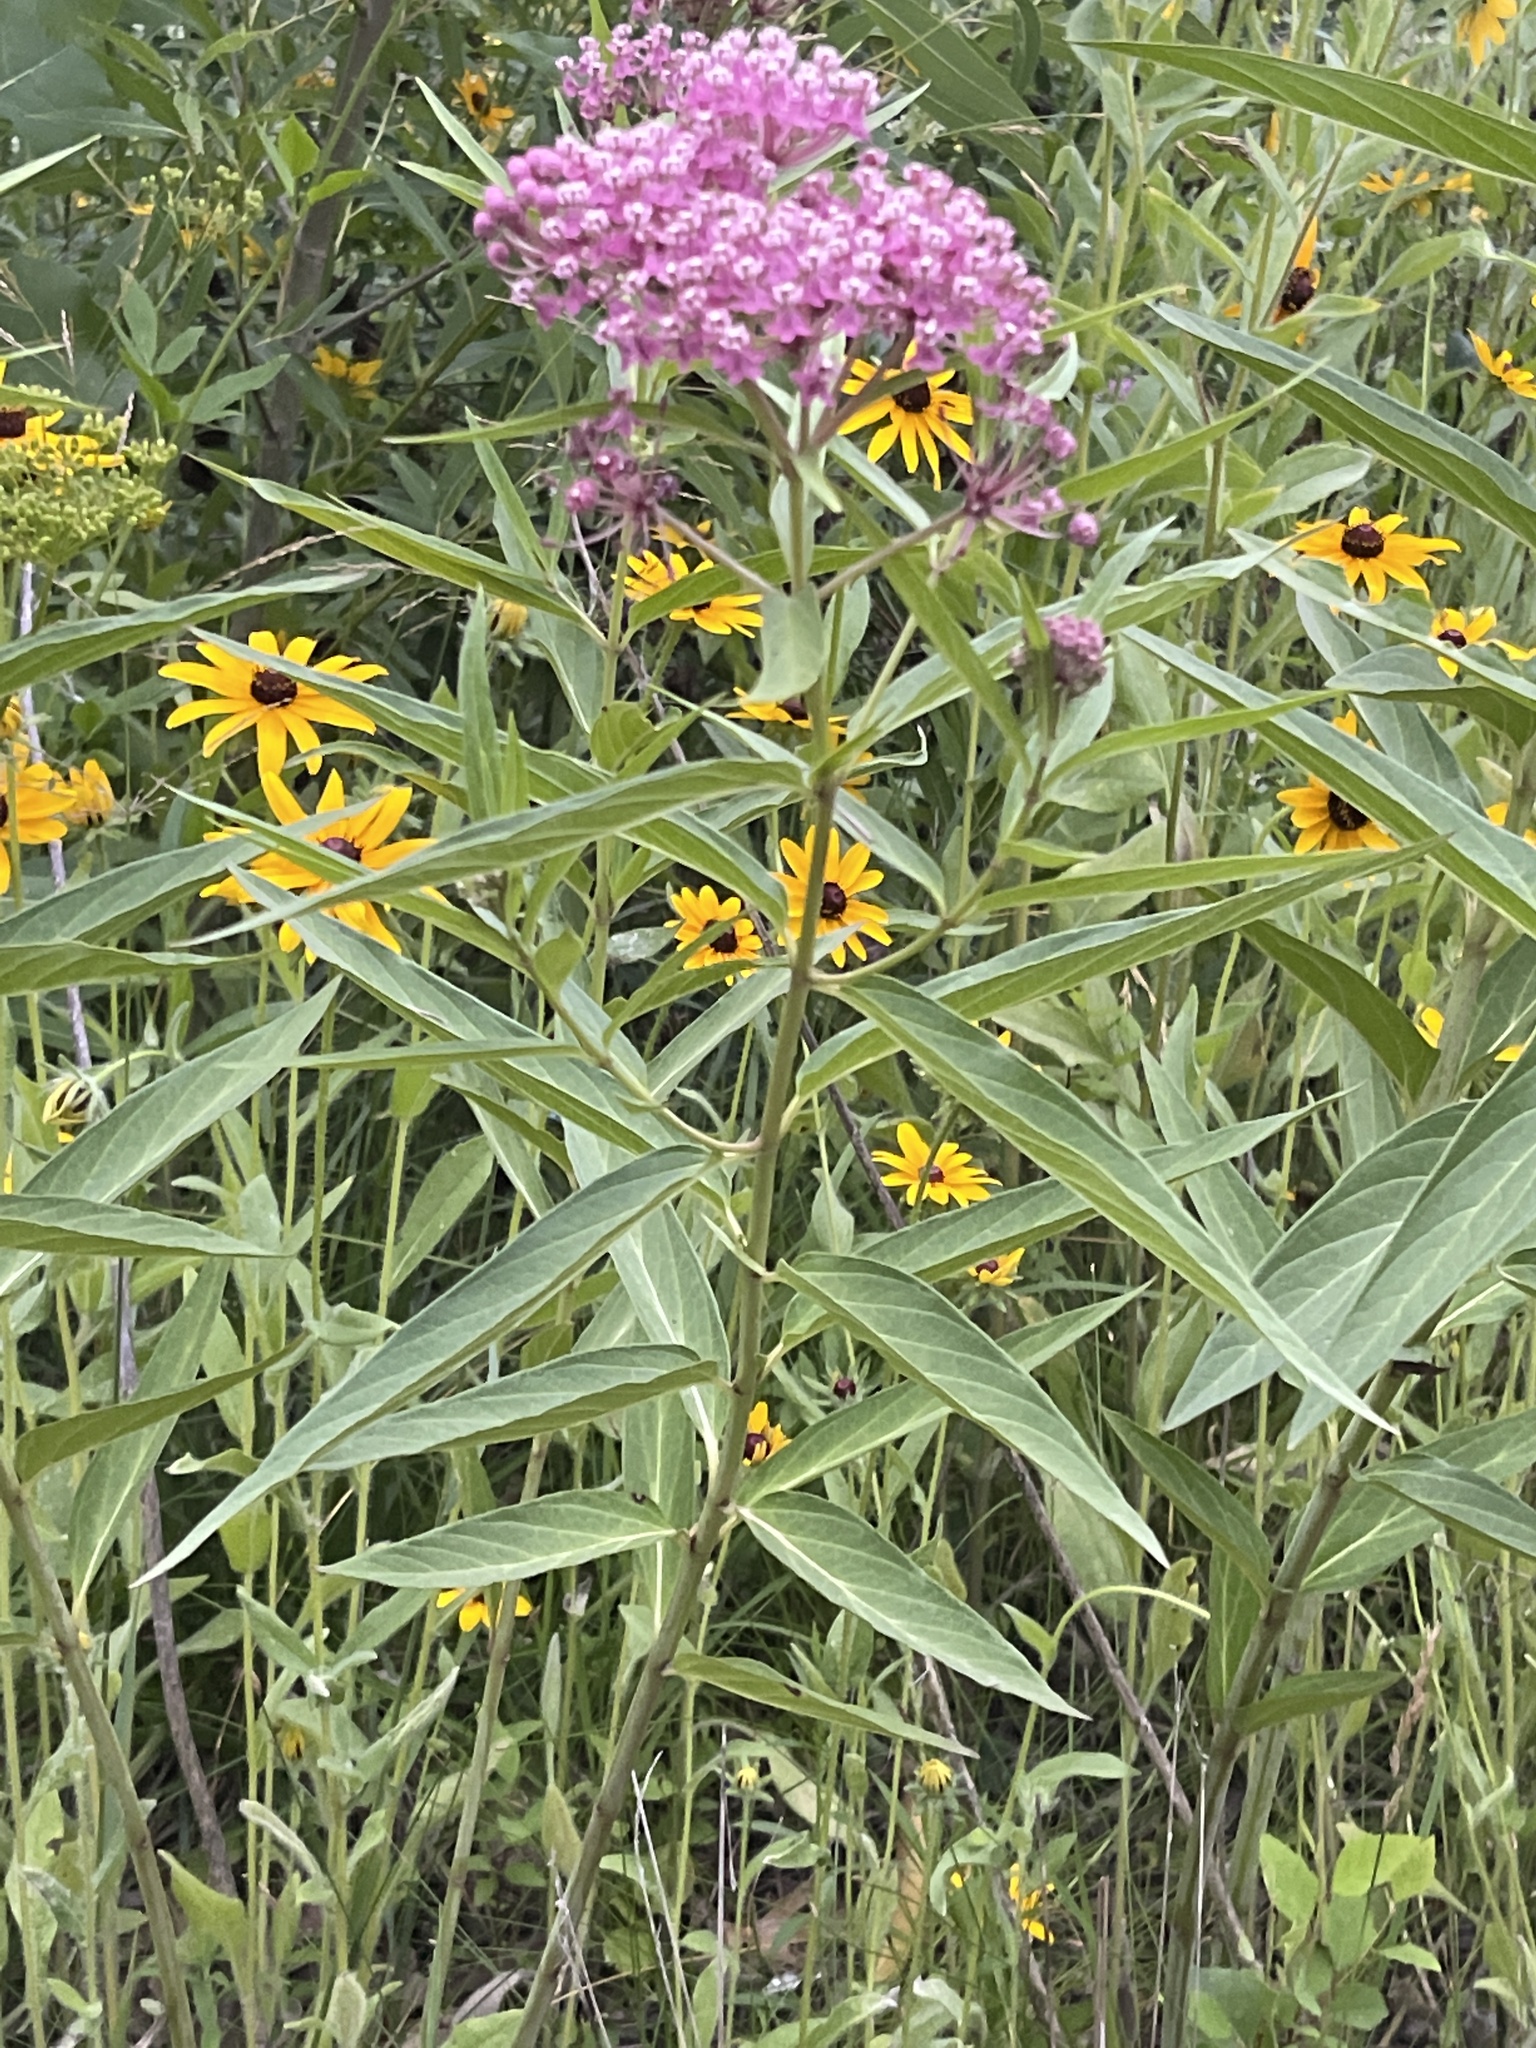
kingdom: Plantae
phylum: Tracheophyta
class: Magnoliopsida
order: Gentianales
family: Apocynaceae
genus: Asclepias
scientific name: Asclepias incarnata
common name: Swamp milkweed
